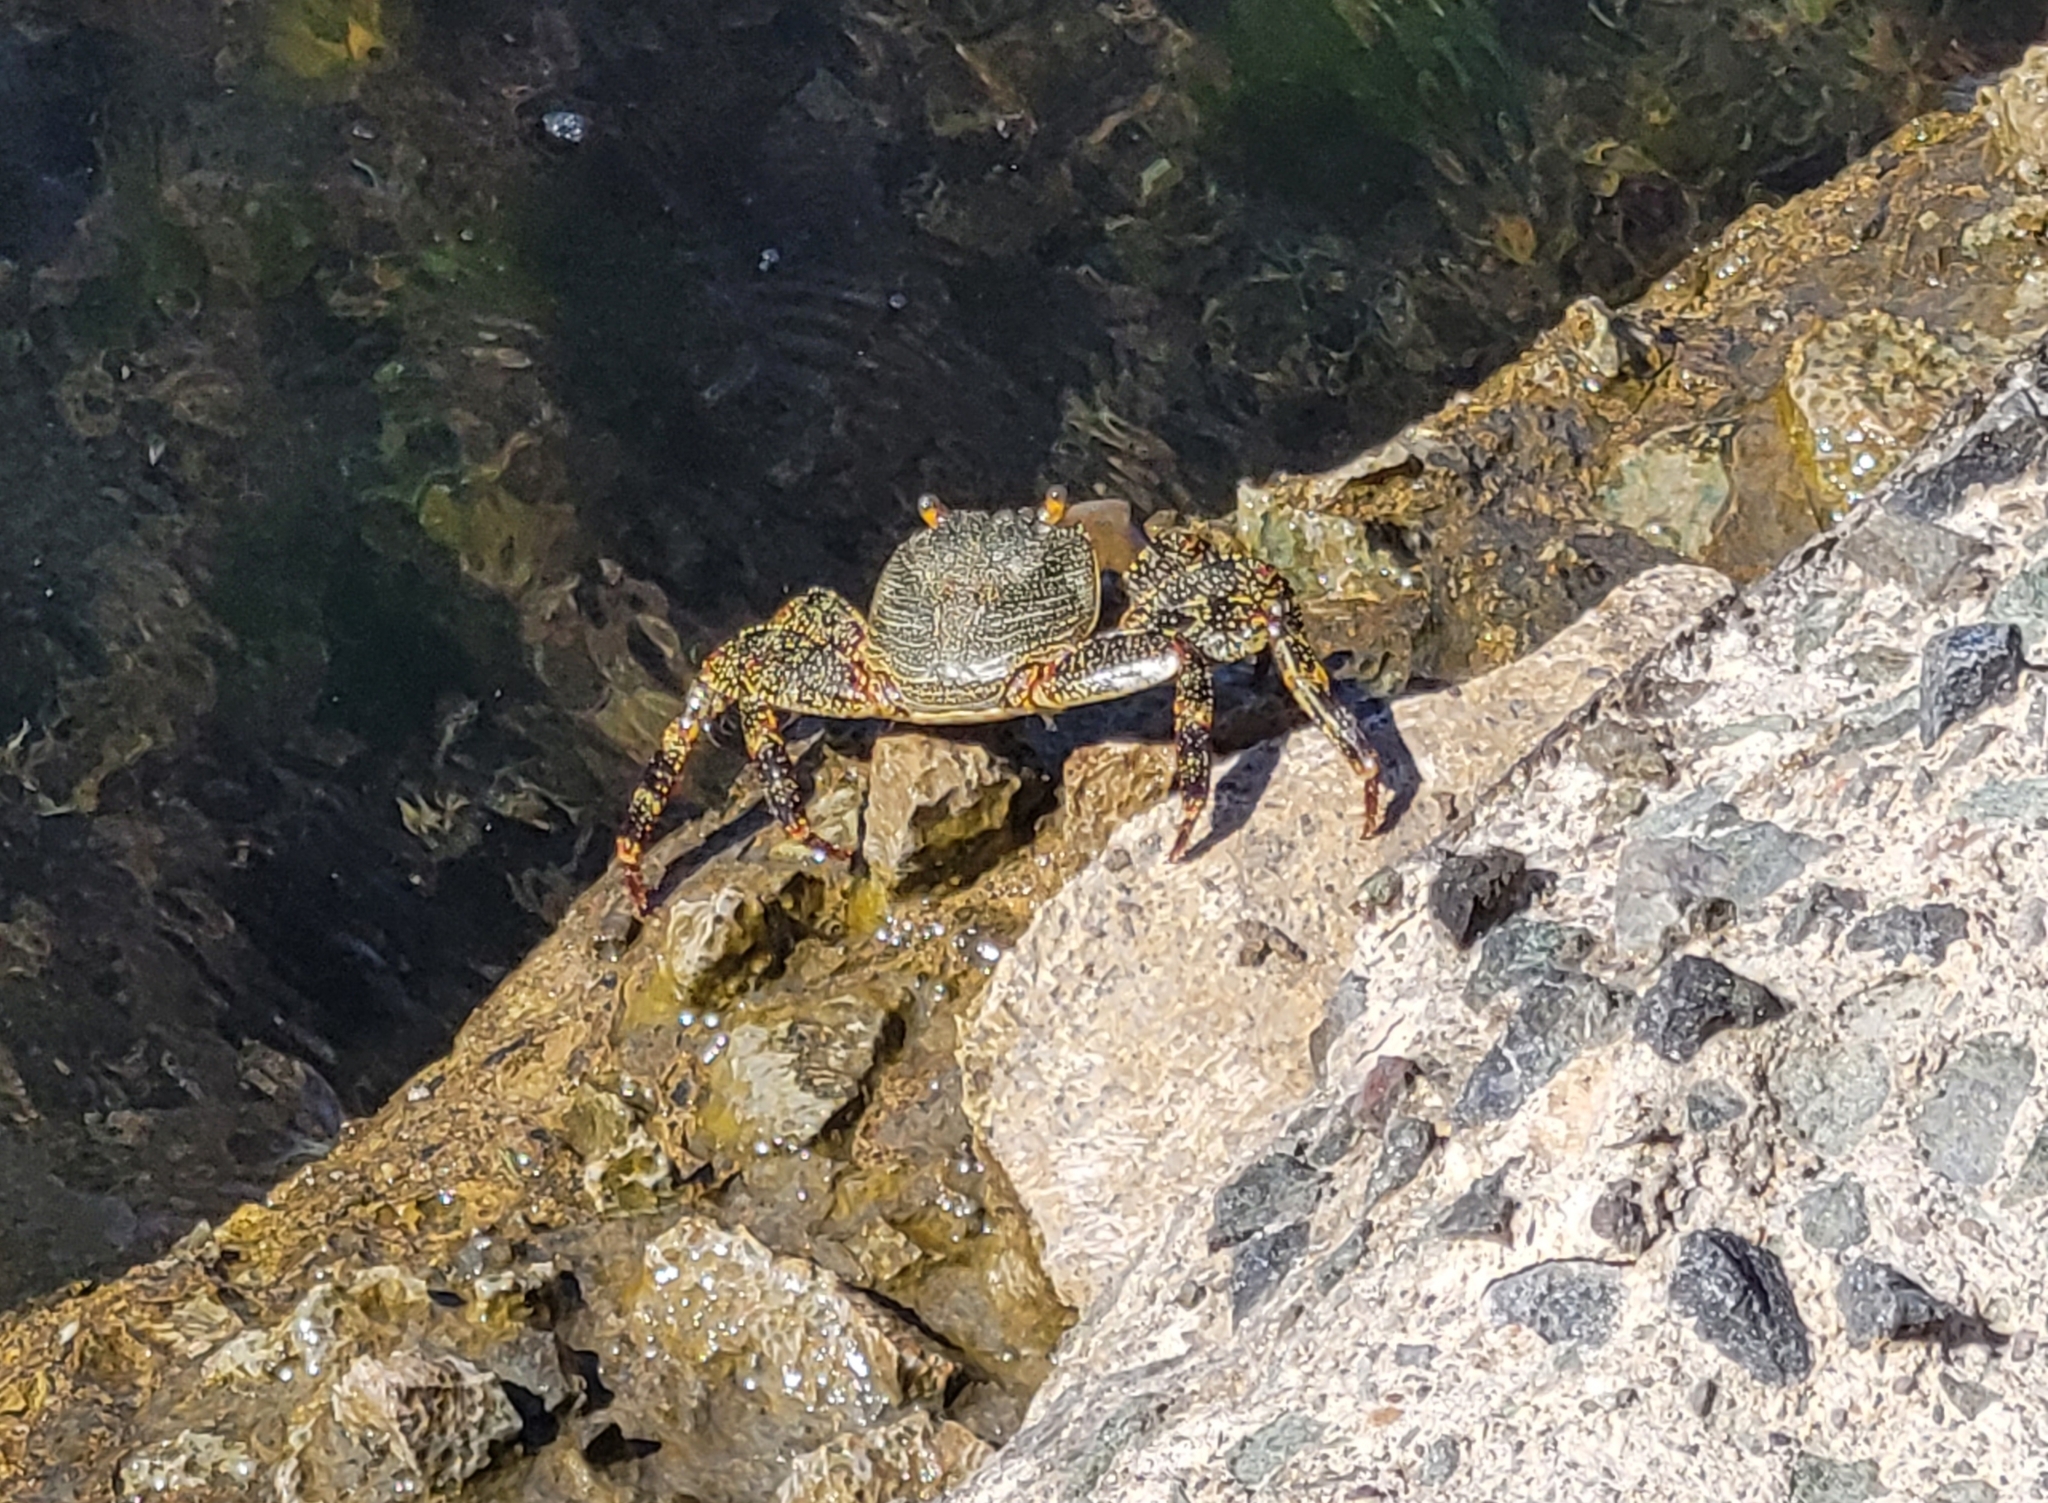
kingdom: Animalia
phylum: Arthropoda
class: Malacostraca
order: Decapoda
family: Grapsidae
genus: Grapsus
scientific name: Grapsus grapsus
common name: Sally lightfoot
